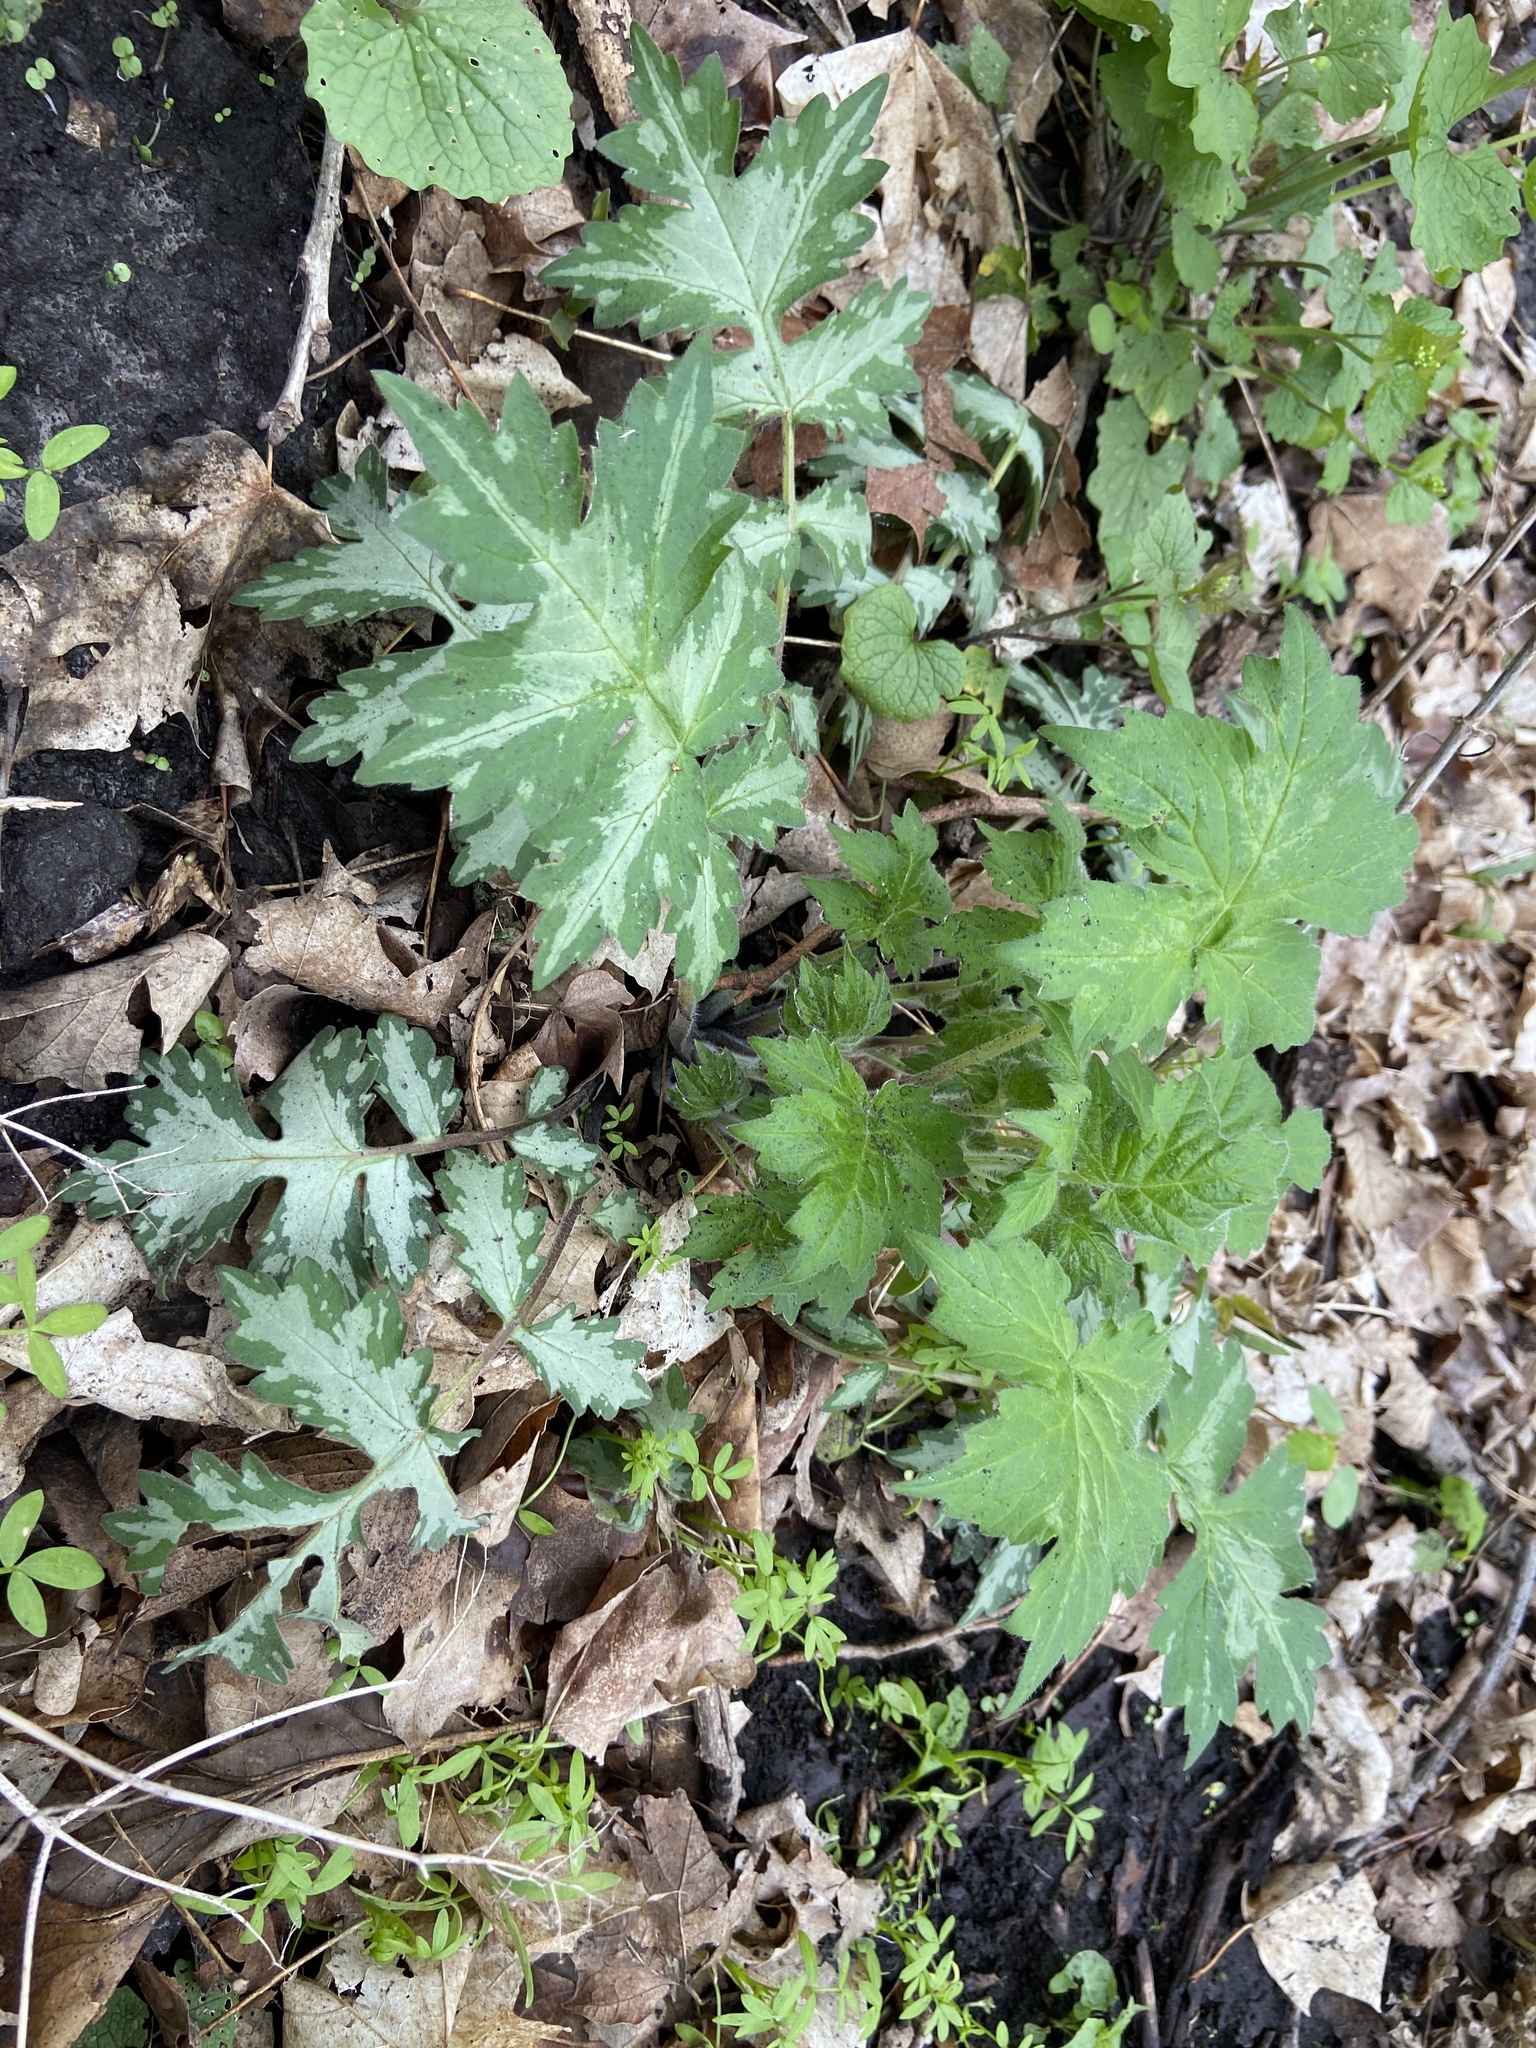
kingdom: Plantae
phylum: Tracheophyta
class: Magnoliopsida
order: Boraginales
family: Hydrophyllaceae
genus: Hydrophyllum
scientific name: Hydrophyllum appendiculatum
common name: Appendaged waterleaf
